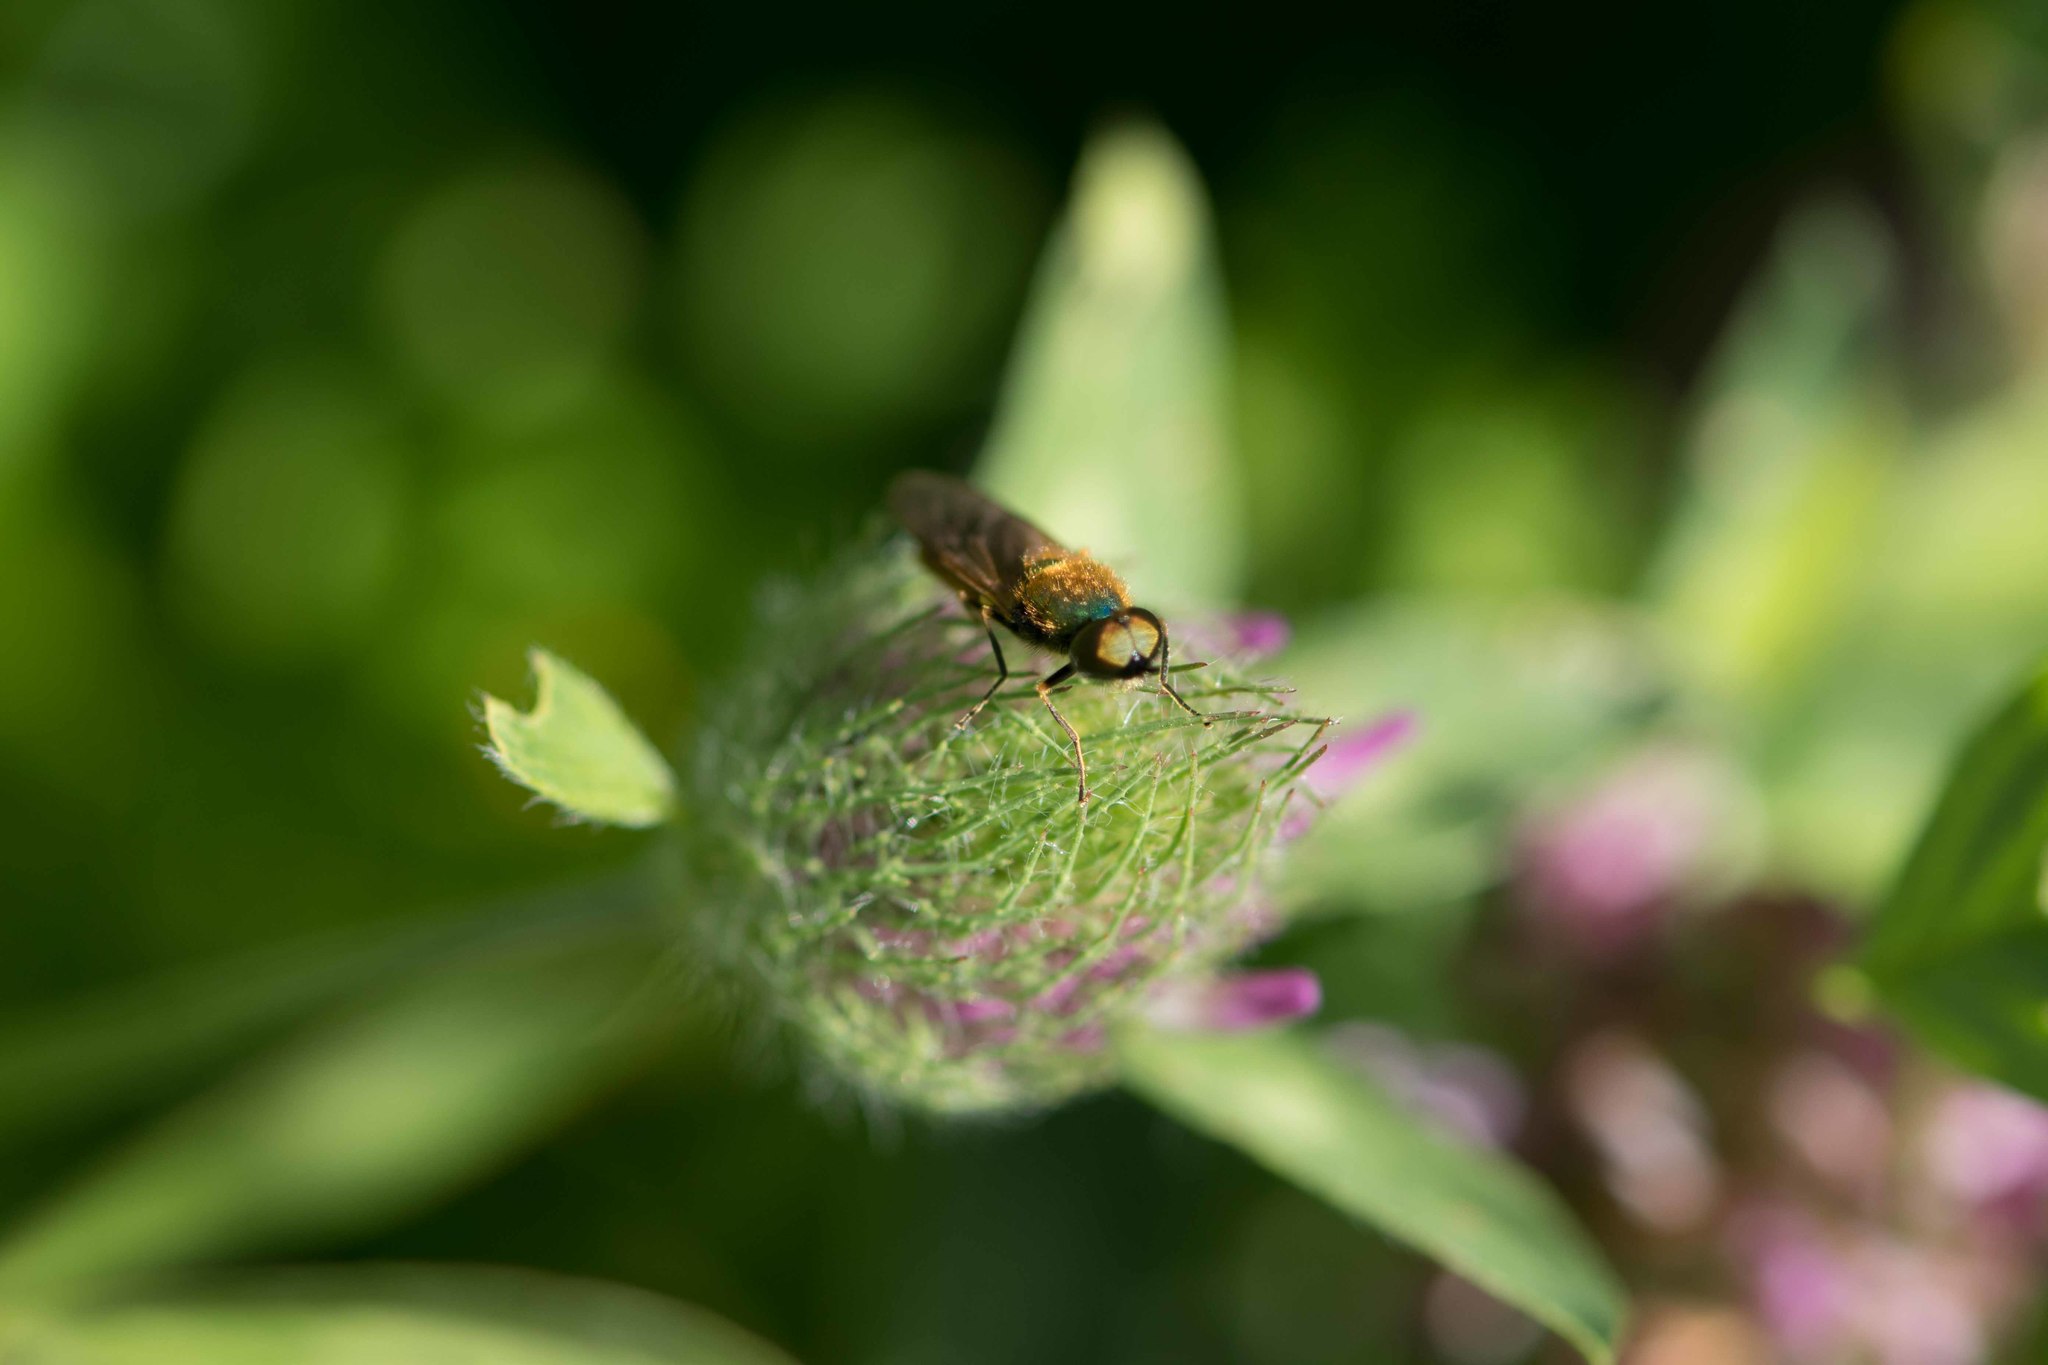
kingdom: Animalia
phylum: Arthropoda
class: Insecta
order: Diptera
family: Stratiomyidae
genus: Chloromyia
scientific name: Chloromyia formosa
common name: Soldier fly
